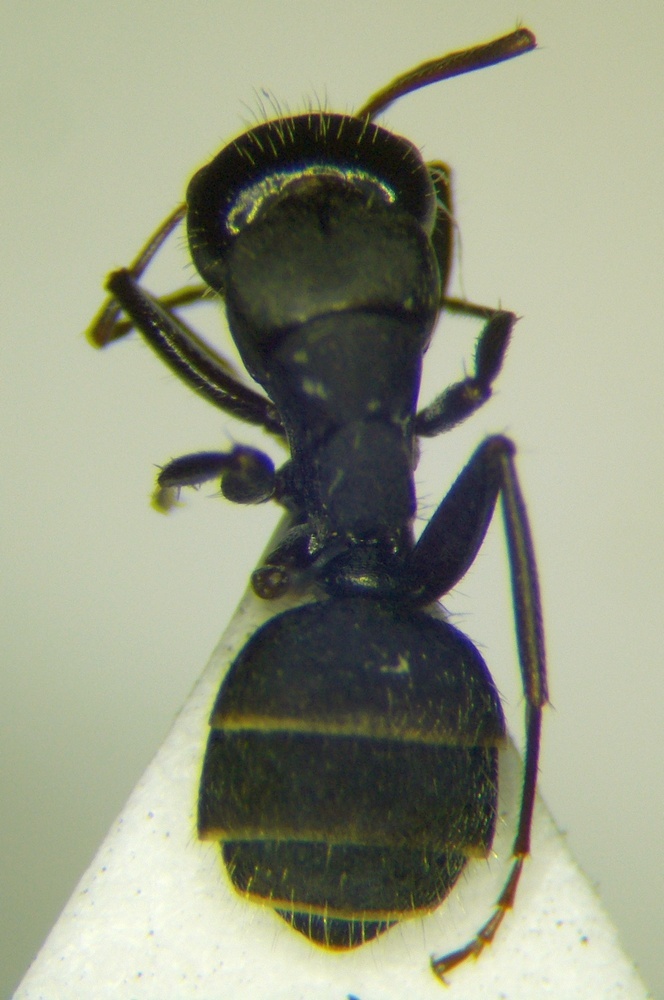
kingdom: Animalia
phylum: Arthropoda
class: Insecta
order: Hymenoptera
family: Formicidae
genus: Camponotus
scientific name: Camponotus libanicus
